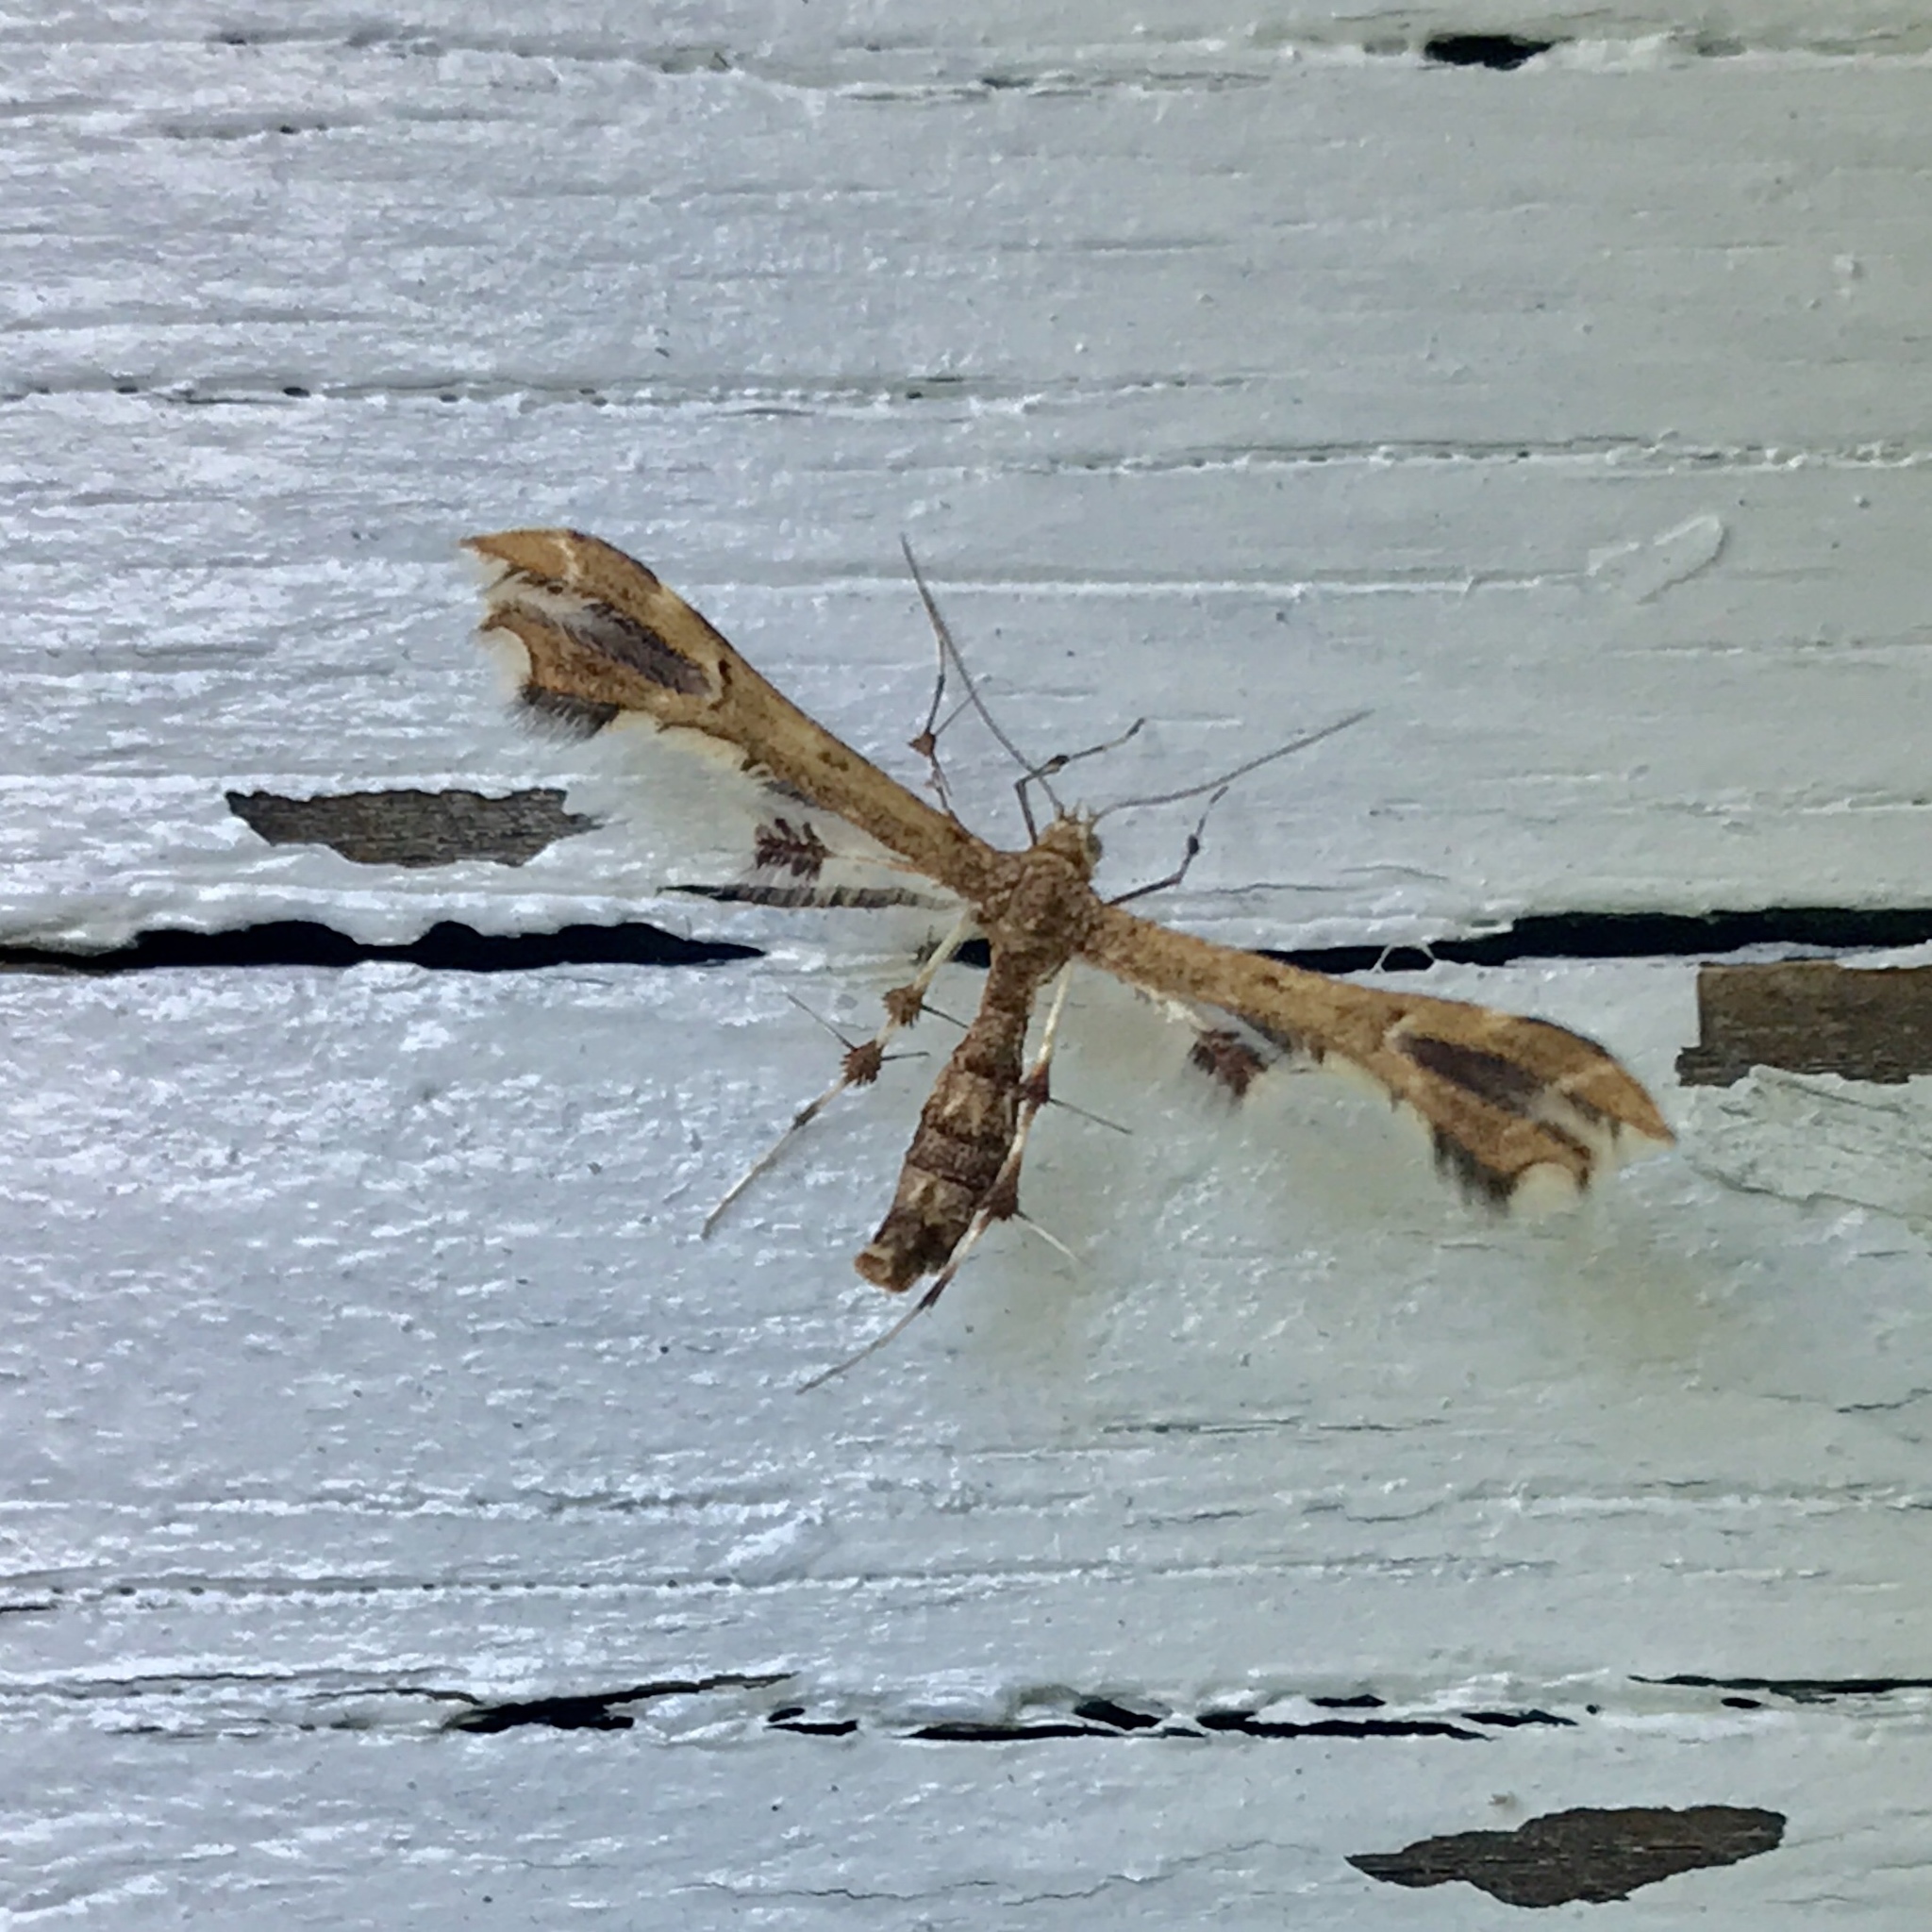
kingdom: Animalia
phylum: Arthropoda
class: Insecta
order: Lepidoptera
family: Pterophoridae
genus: Geina
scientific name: Geina
